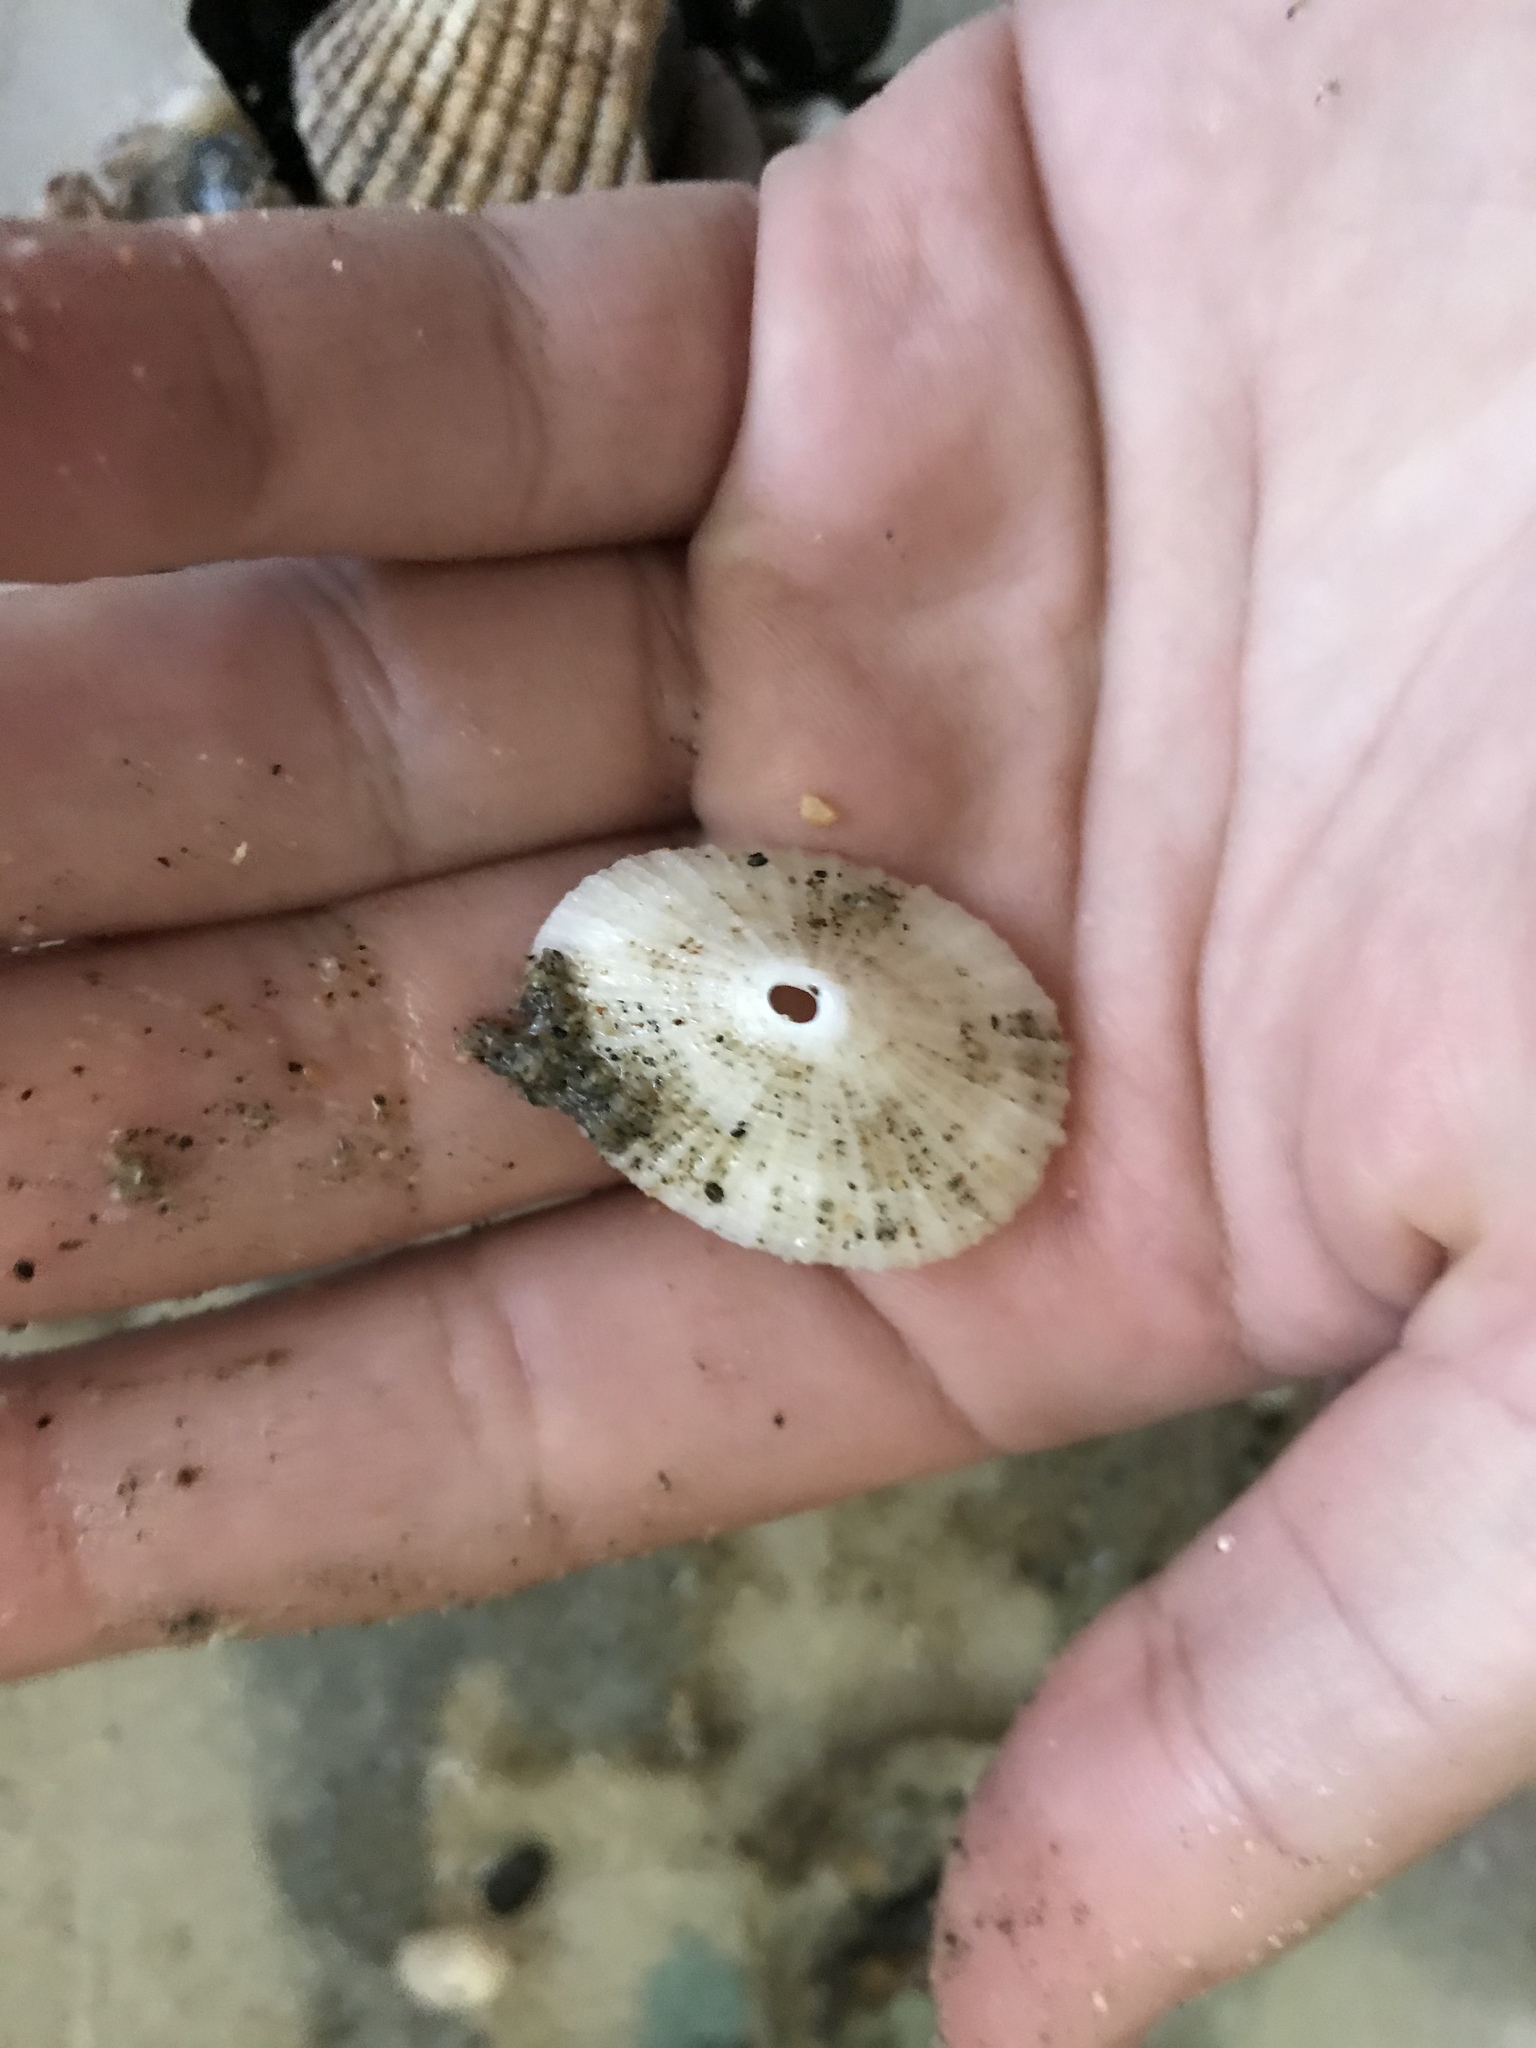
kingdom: Animalia
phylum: Mollusca
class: Gastropoda
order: Lepetellida
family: Fissurellidae
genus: Diodora
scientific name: Diodora aspera
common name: Rough keyhole limpet
